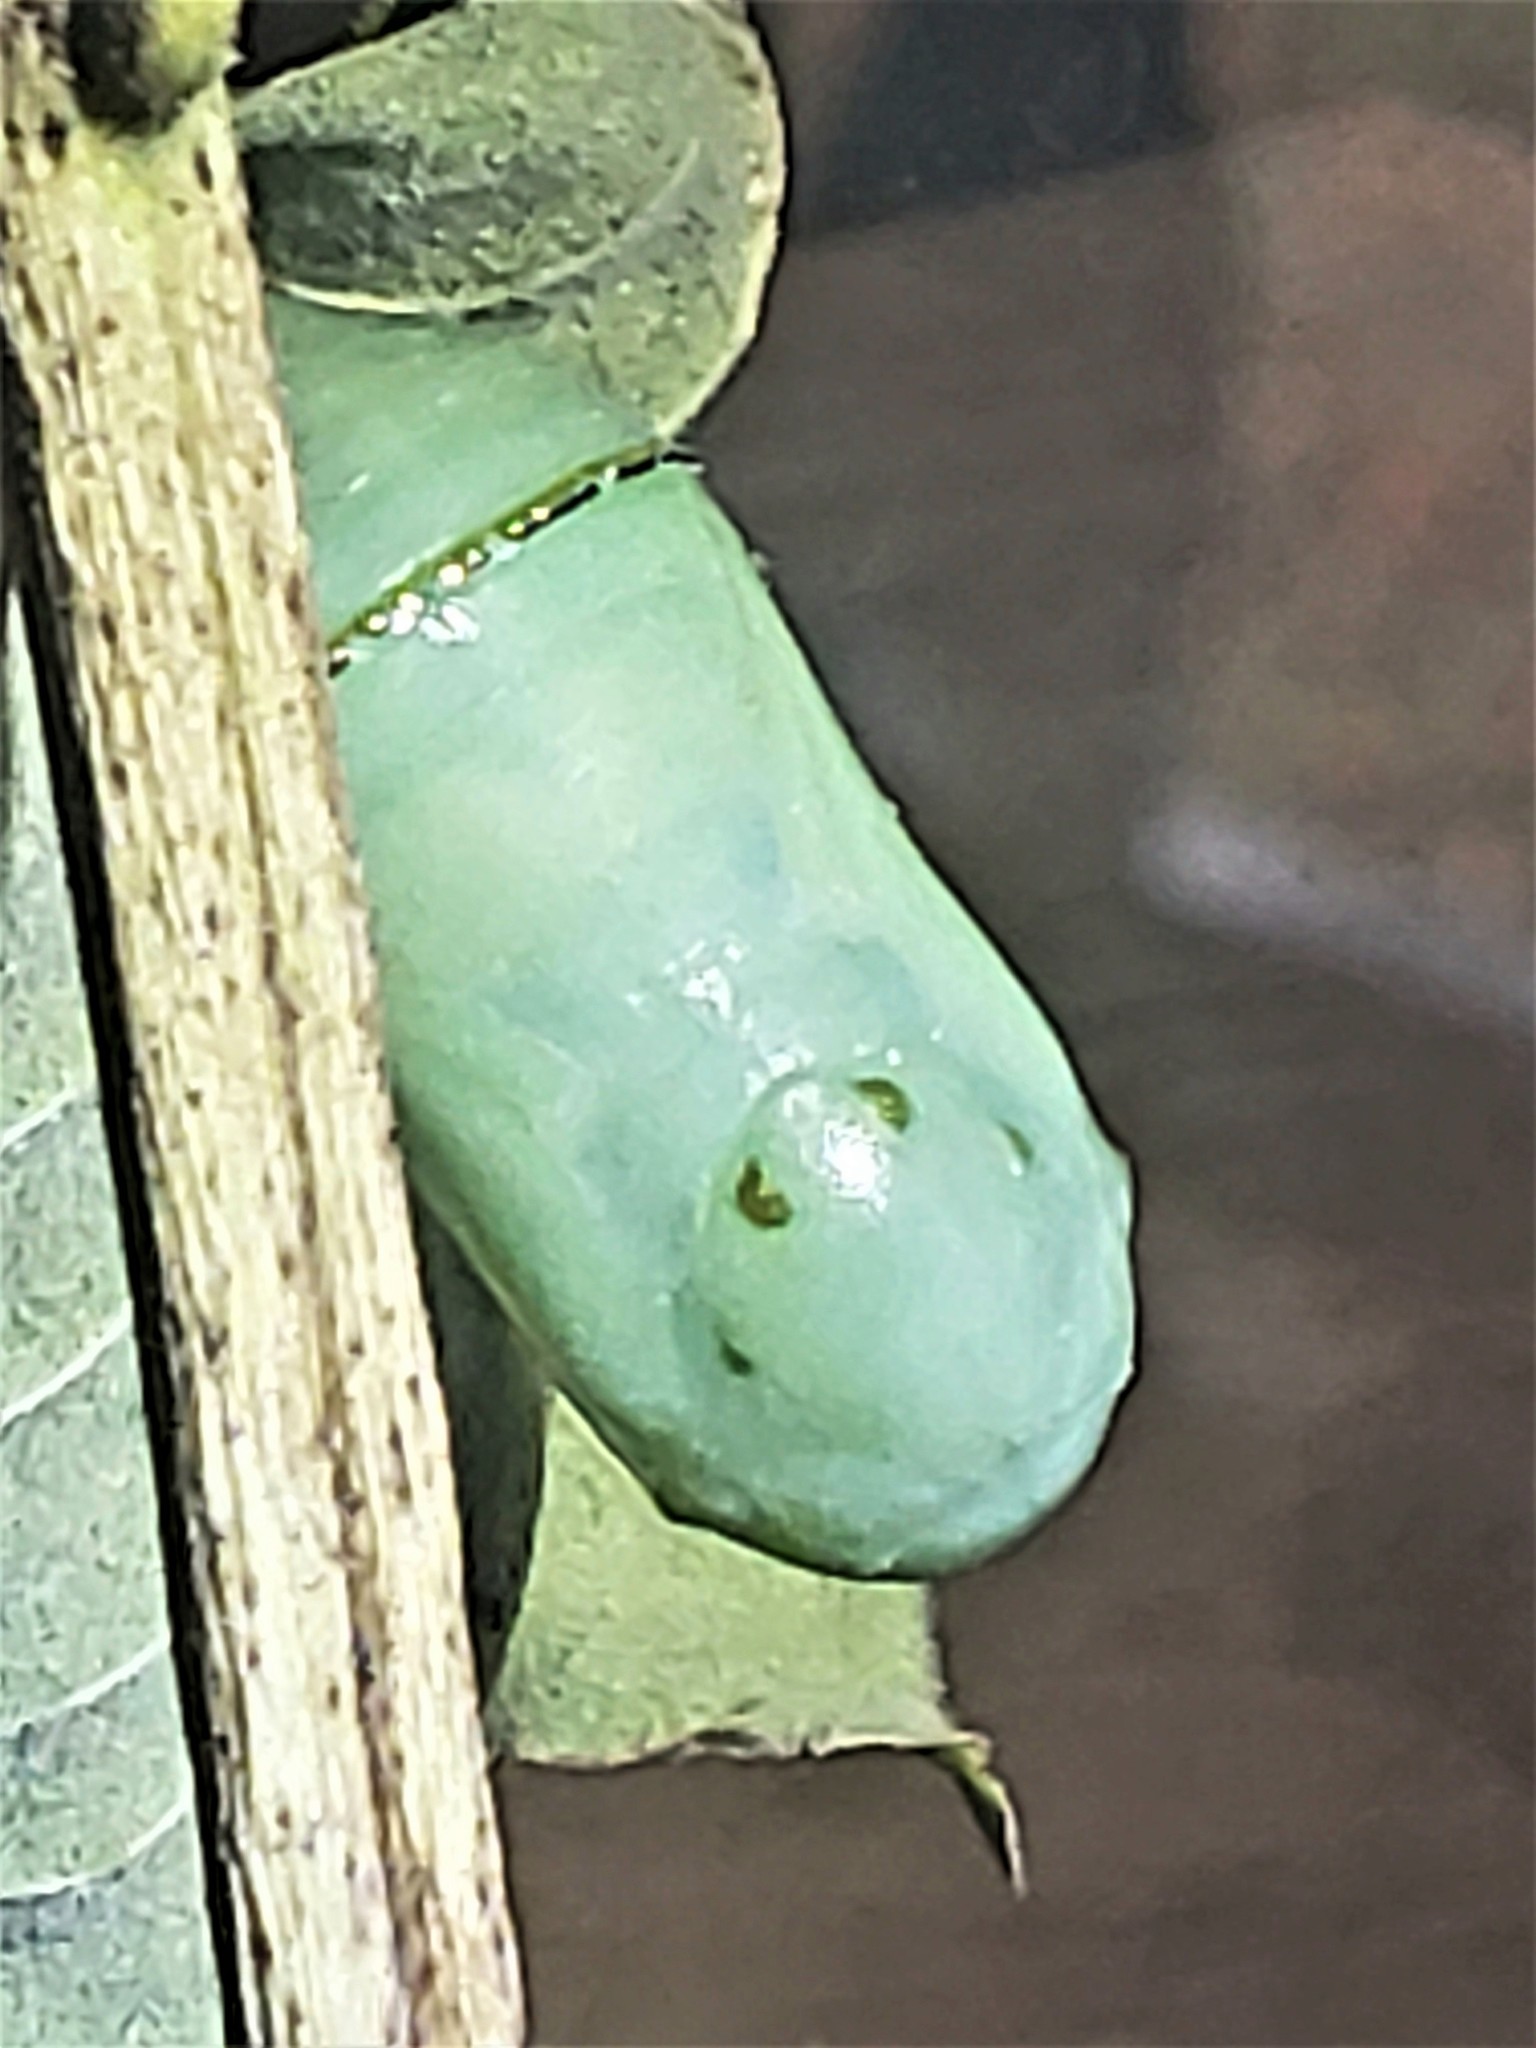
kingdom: Animalia
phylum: Arthropoda
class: Insecta
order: Lepidoptera
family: Nymphalidae
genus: Danaus
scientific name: Danaus plexippus
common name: Monarch
